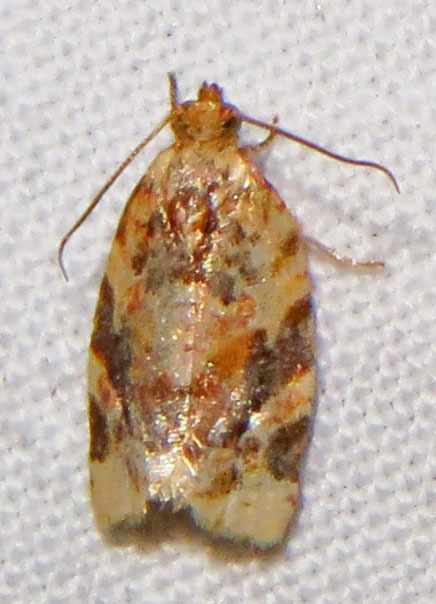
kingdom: Animalia
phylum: Arthropoda
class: Insecta
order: Lepidoptera
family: Tortricidae
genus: Argyrotaenia
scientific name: Argyrotaenia velutinana
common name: Red-banded leafroller moth
